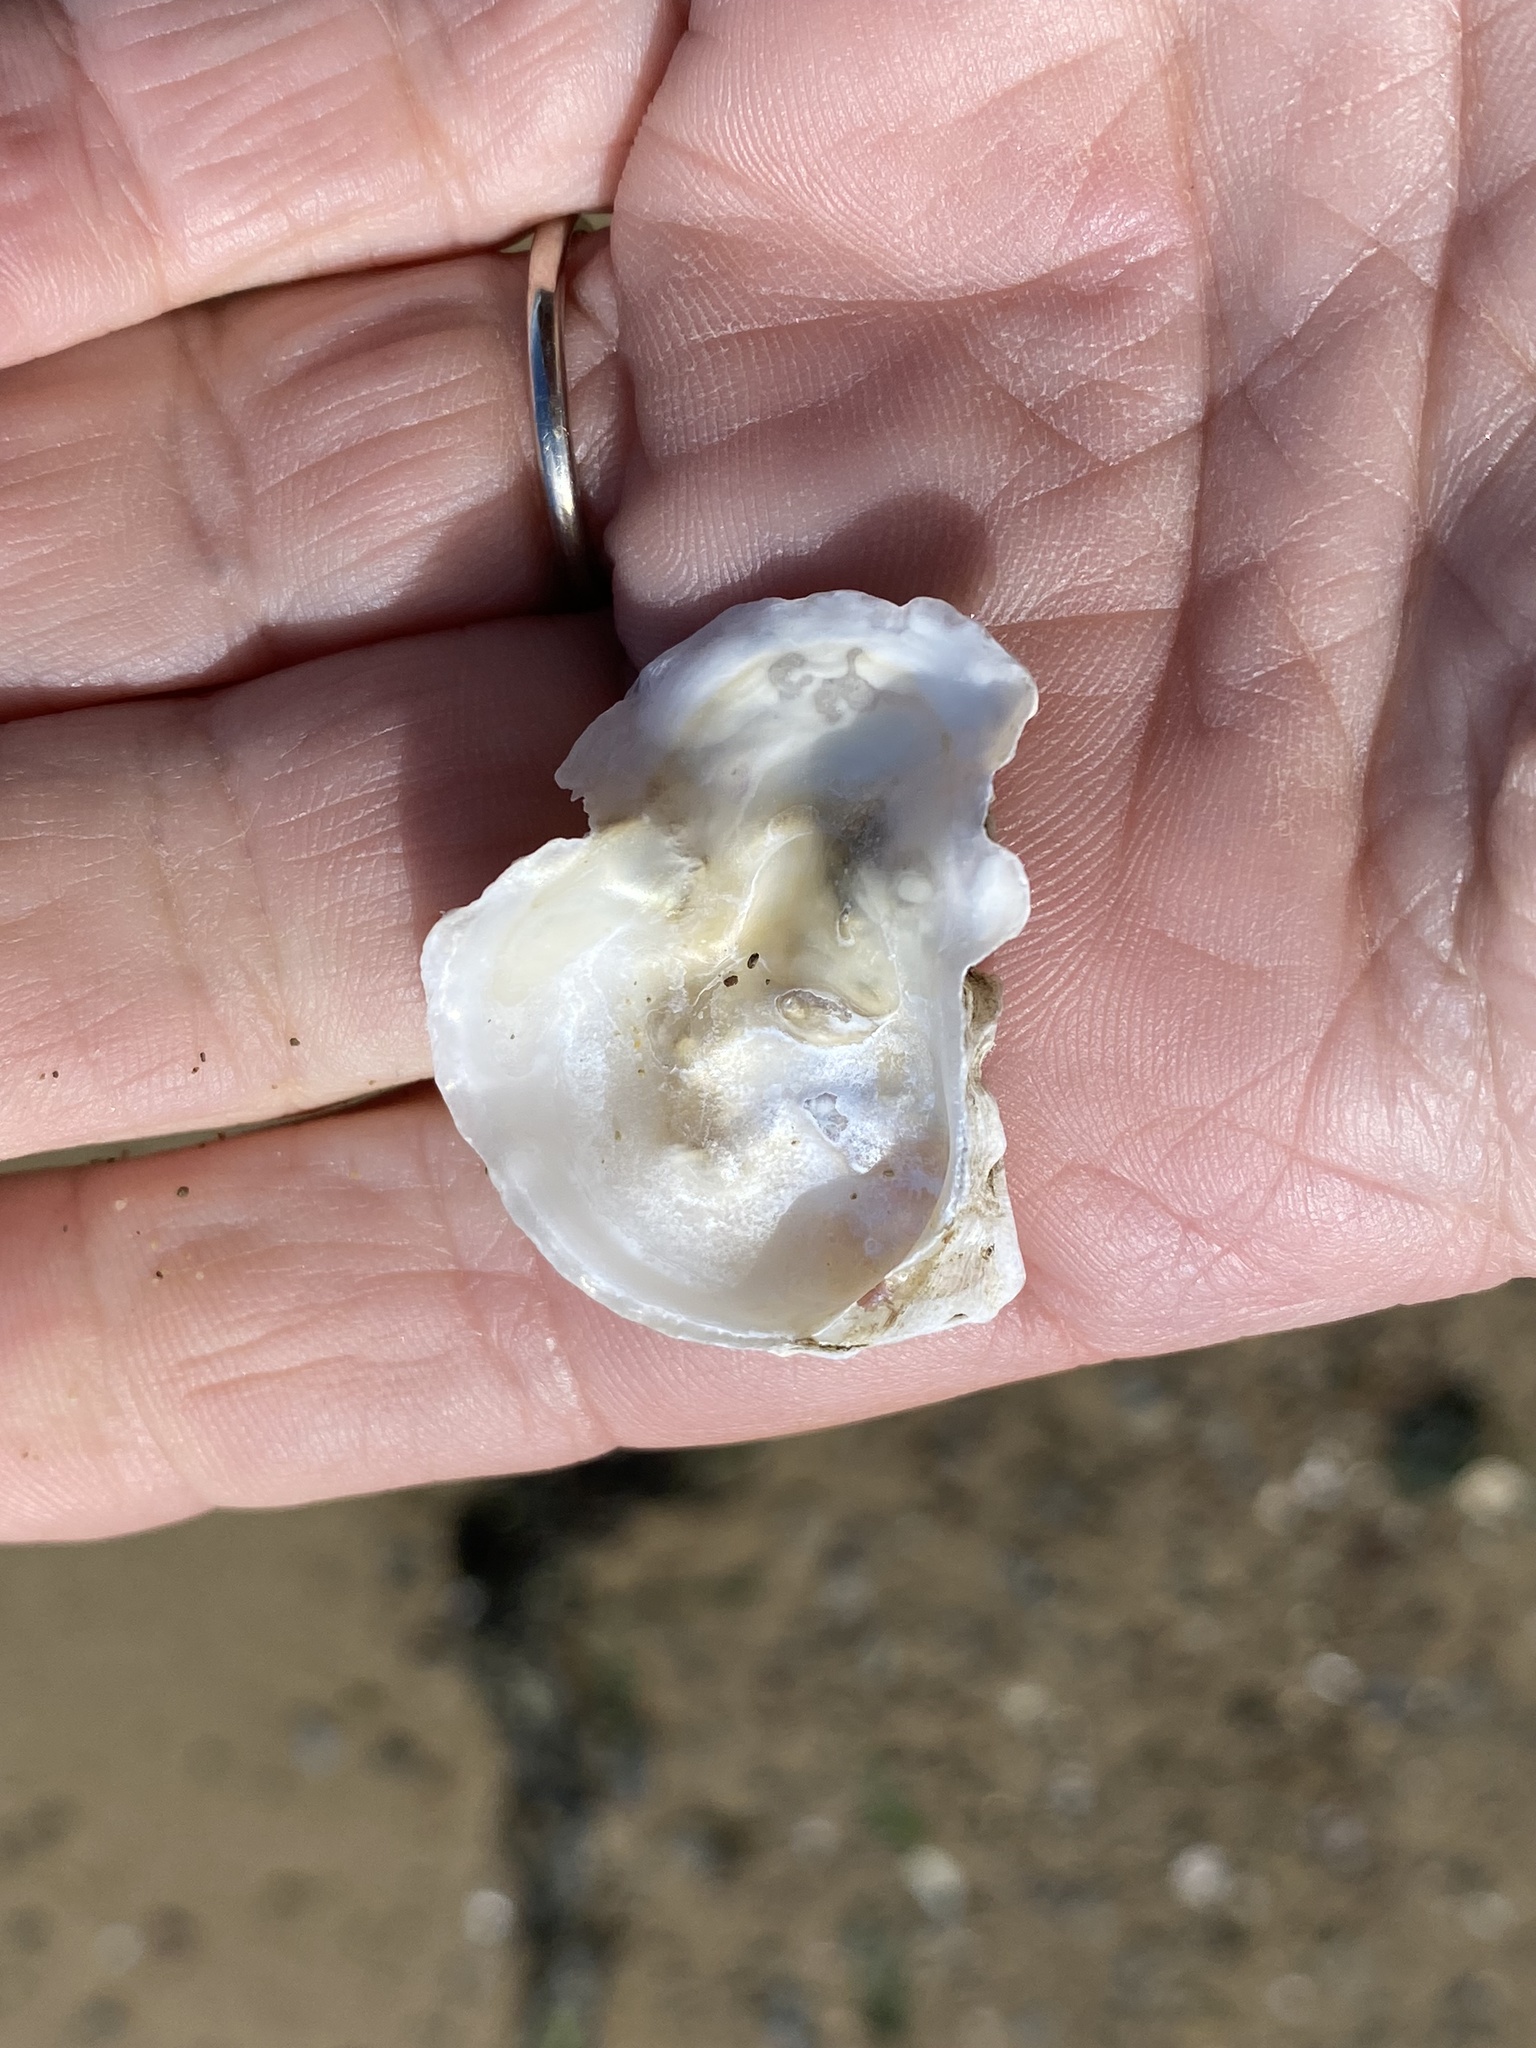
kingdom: Animalia
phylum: Mollusca
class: Bivalvia
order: Ostreida
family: Ostreidae
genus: Ostrea
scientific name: Ostrea lurida
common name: Olympia flat oyster
